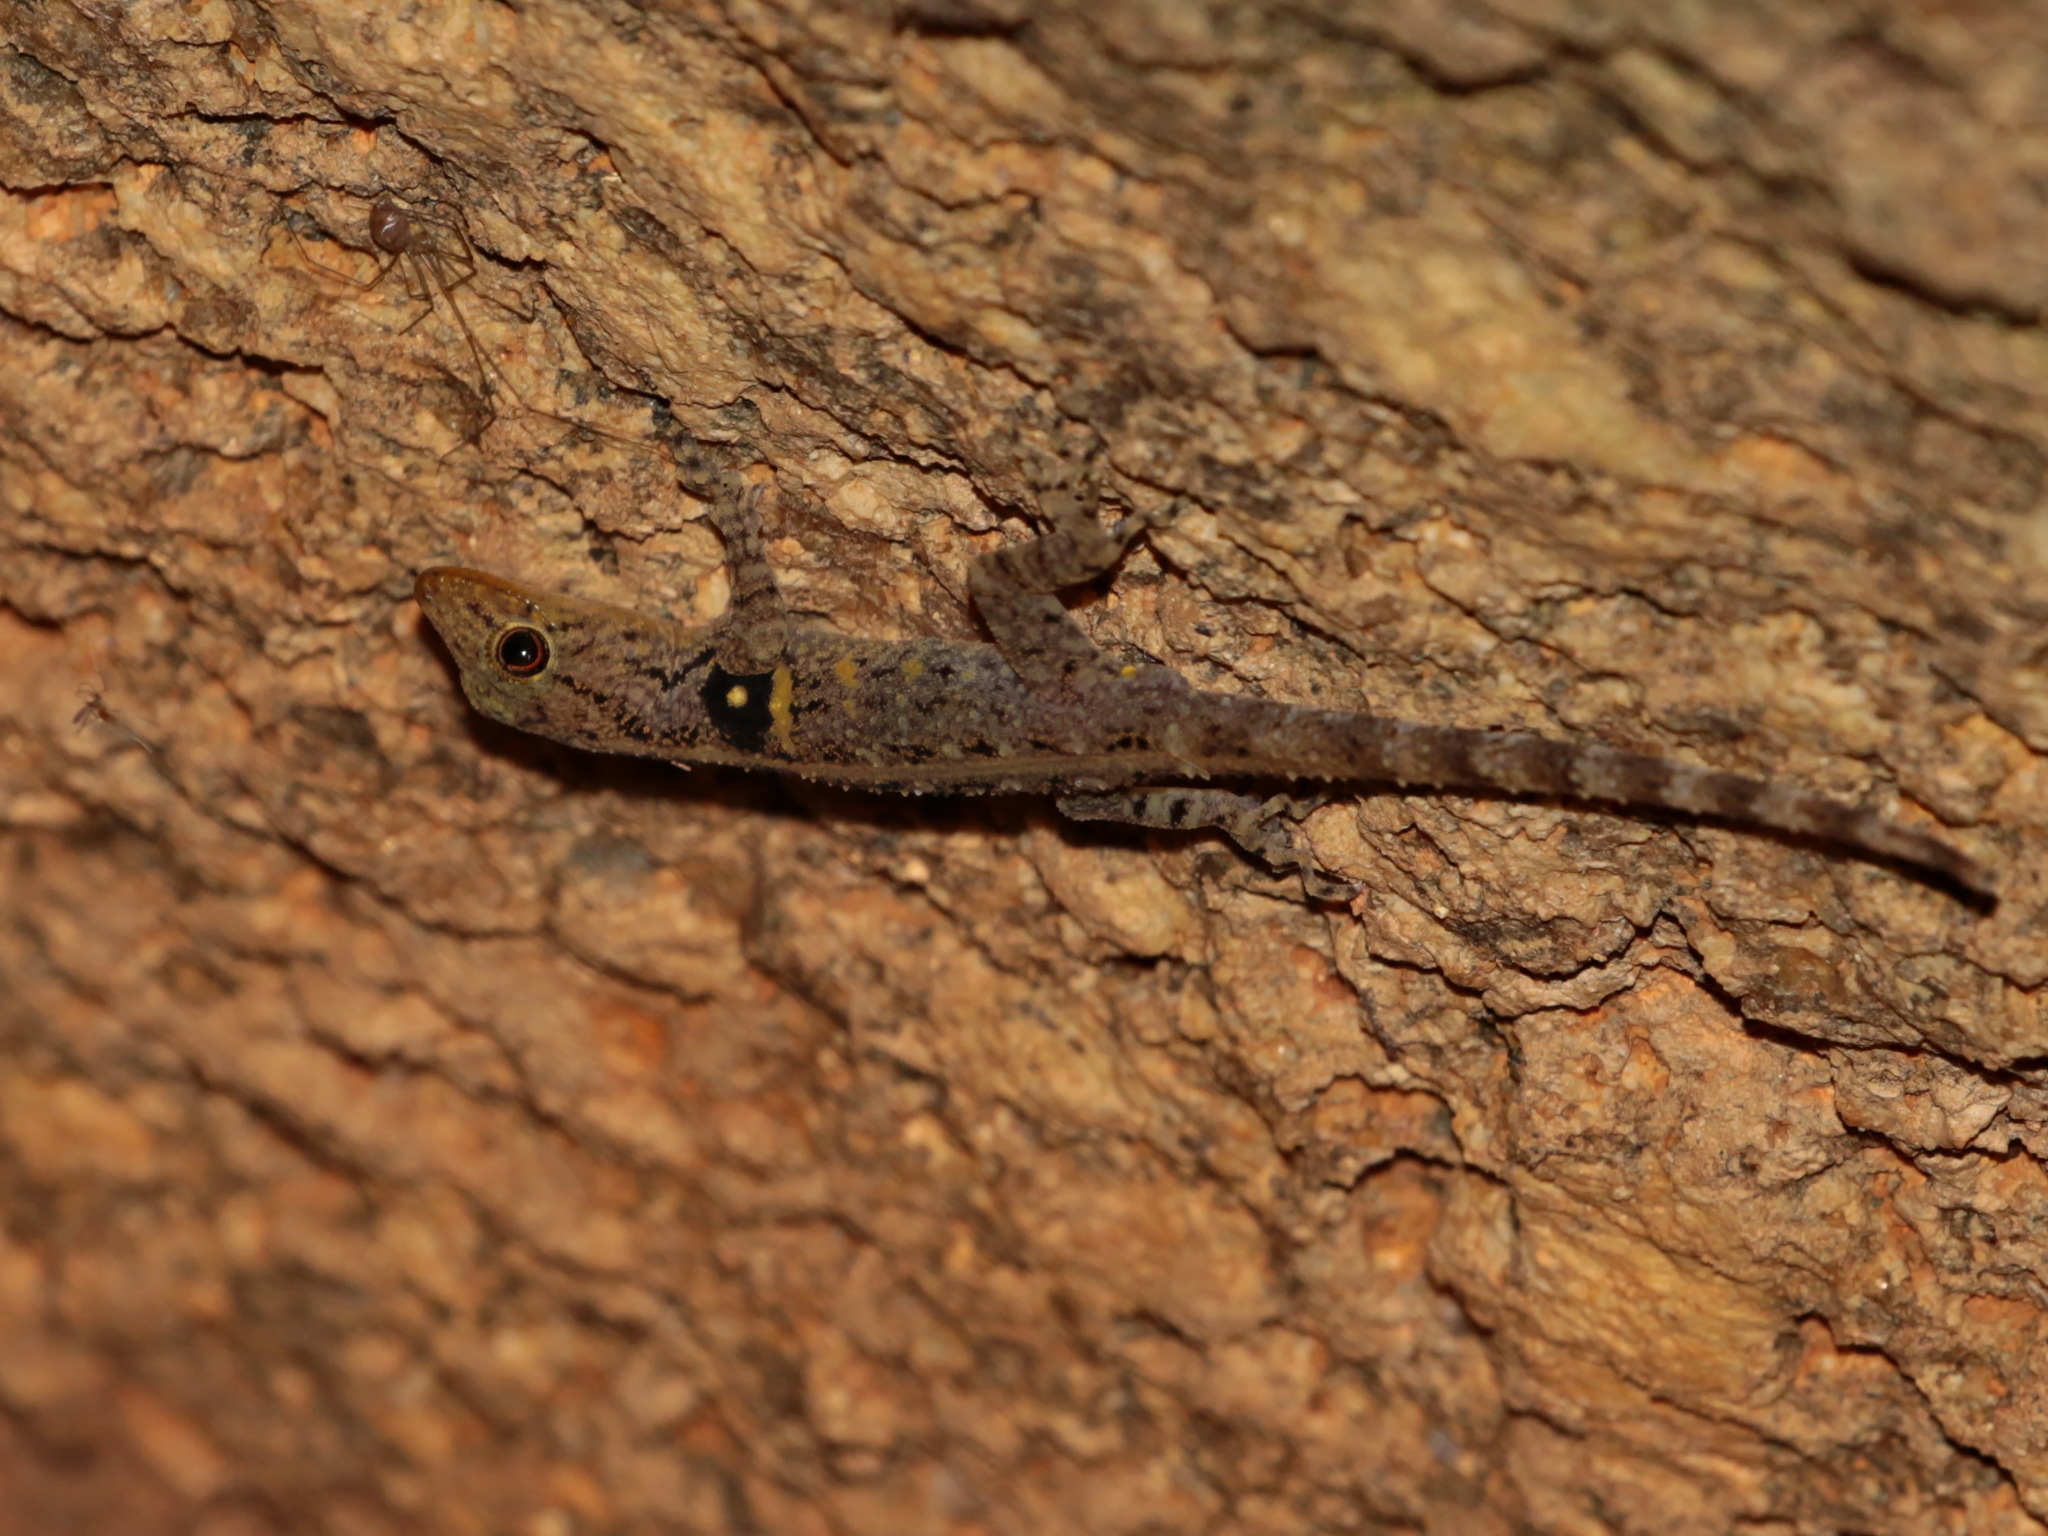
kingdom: Animalia
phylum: Chordata
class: Squamata
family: Gekkonidae
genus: Cnemaspis
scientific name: Cnemaspis mcguirei
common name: Mcguire’s rock gecko
